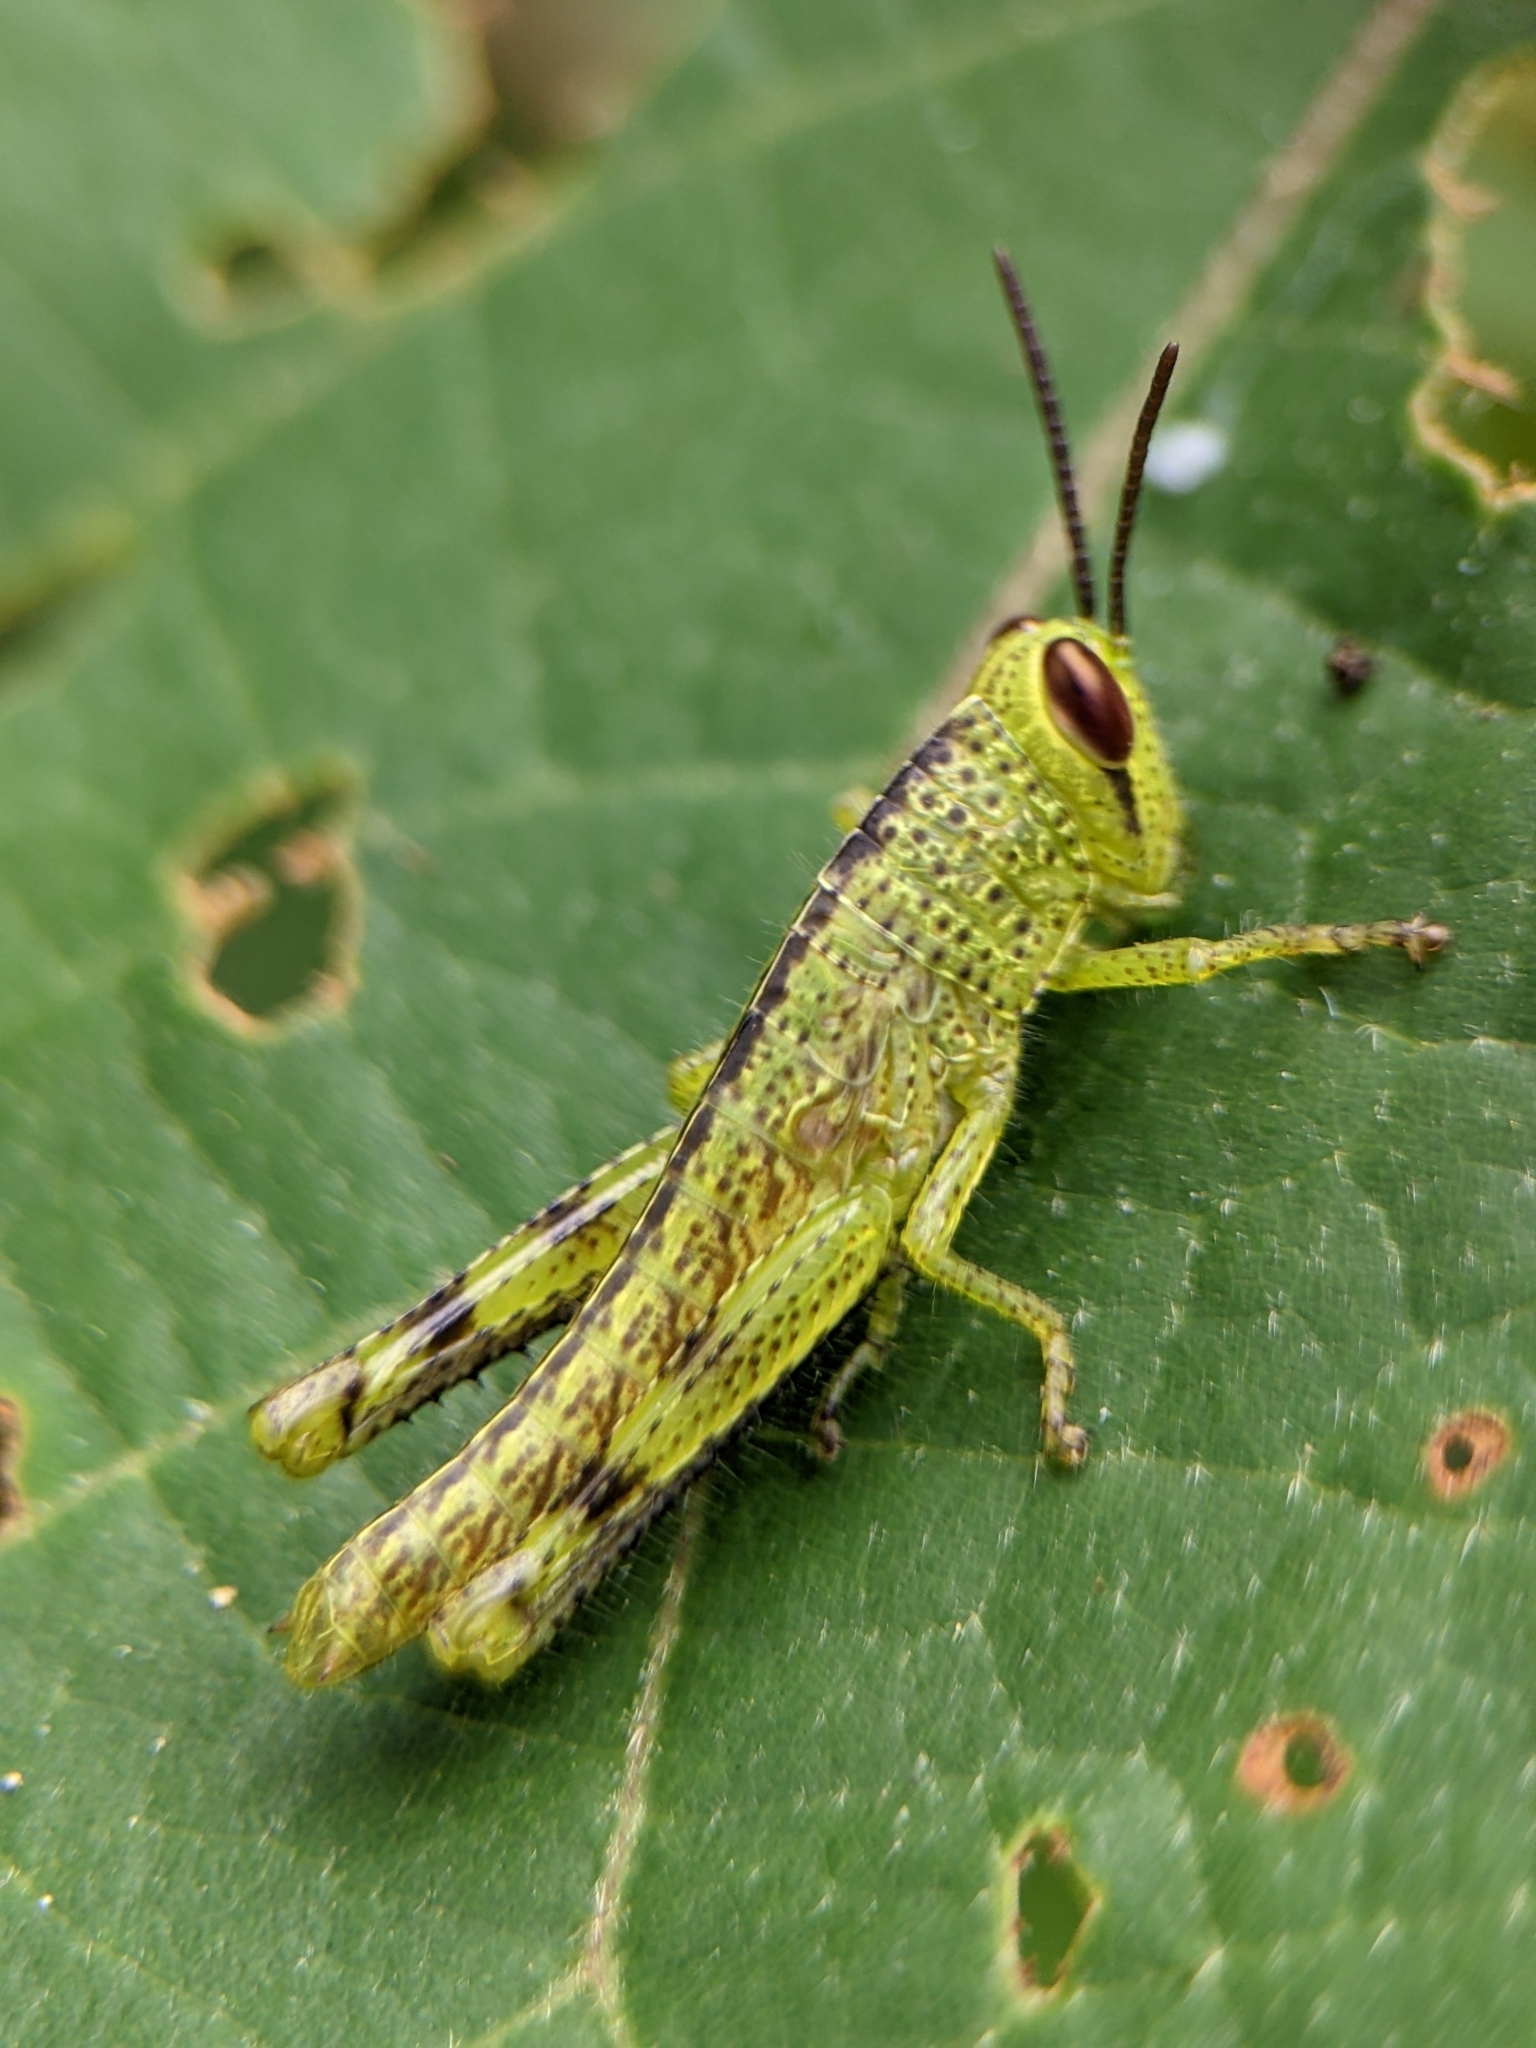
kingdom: Animalia
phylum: Arthropoda
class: Insecta
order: Orthoptera
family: Acrididae
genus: Valanga
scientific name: Valanga nigricornis
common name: Javanese bird grasshopper
